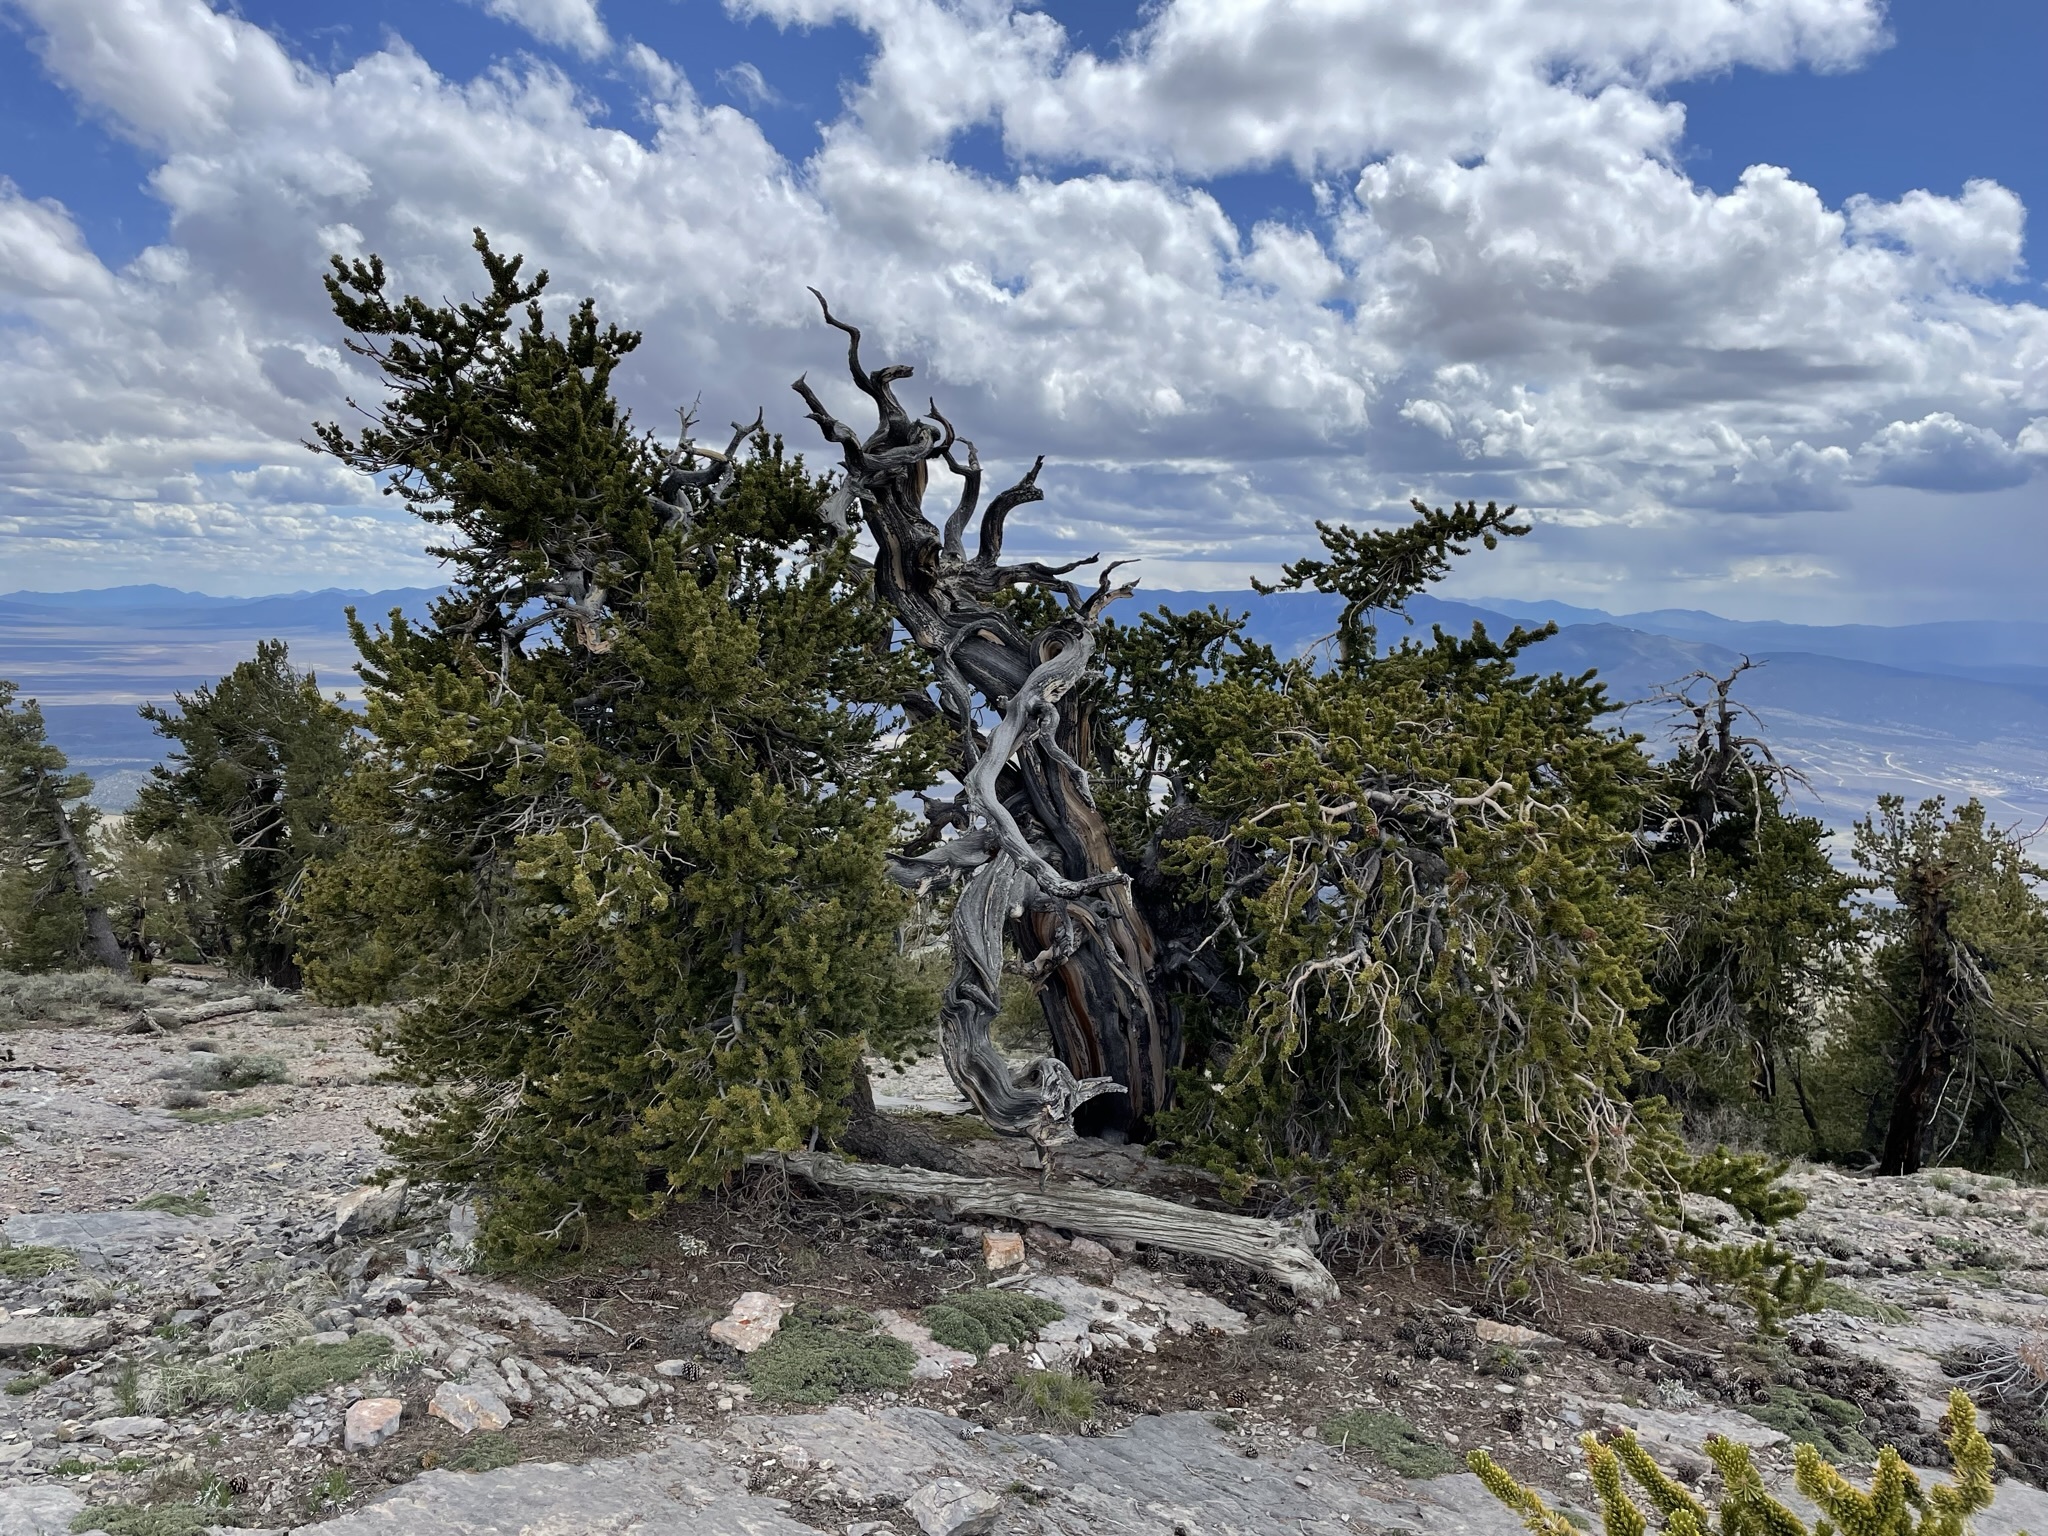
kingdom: Plantae
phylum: Tracheophyta
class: Pinopsida
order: Pinales
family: Pinaceae
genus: Pinus
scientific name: Pinus longaeva
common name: Intermountain bristlecone pine
